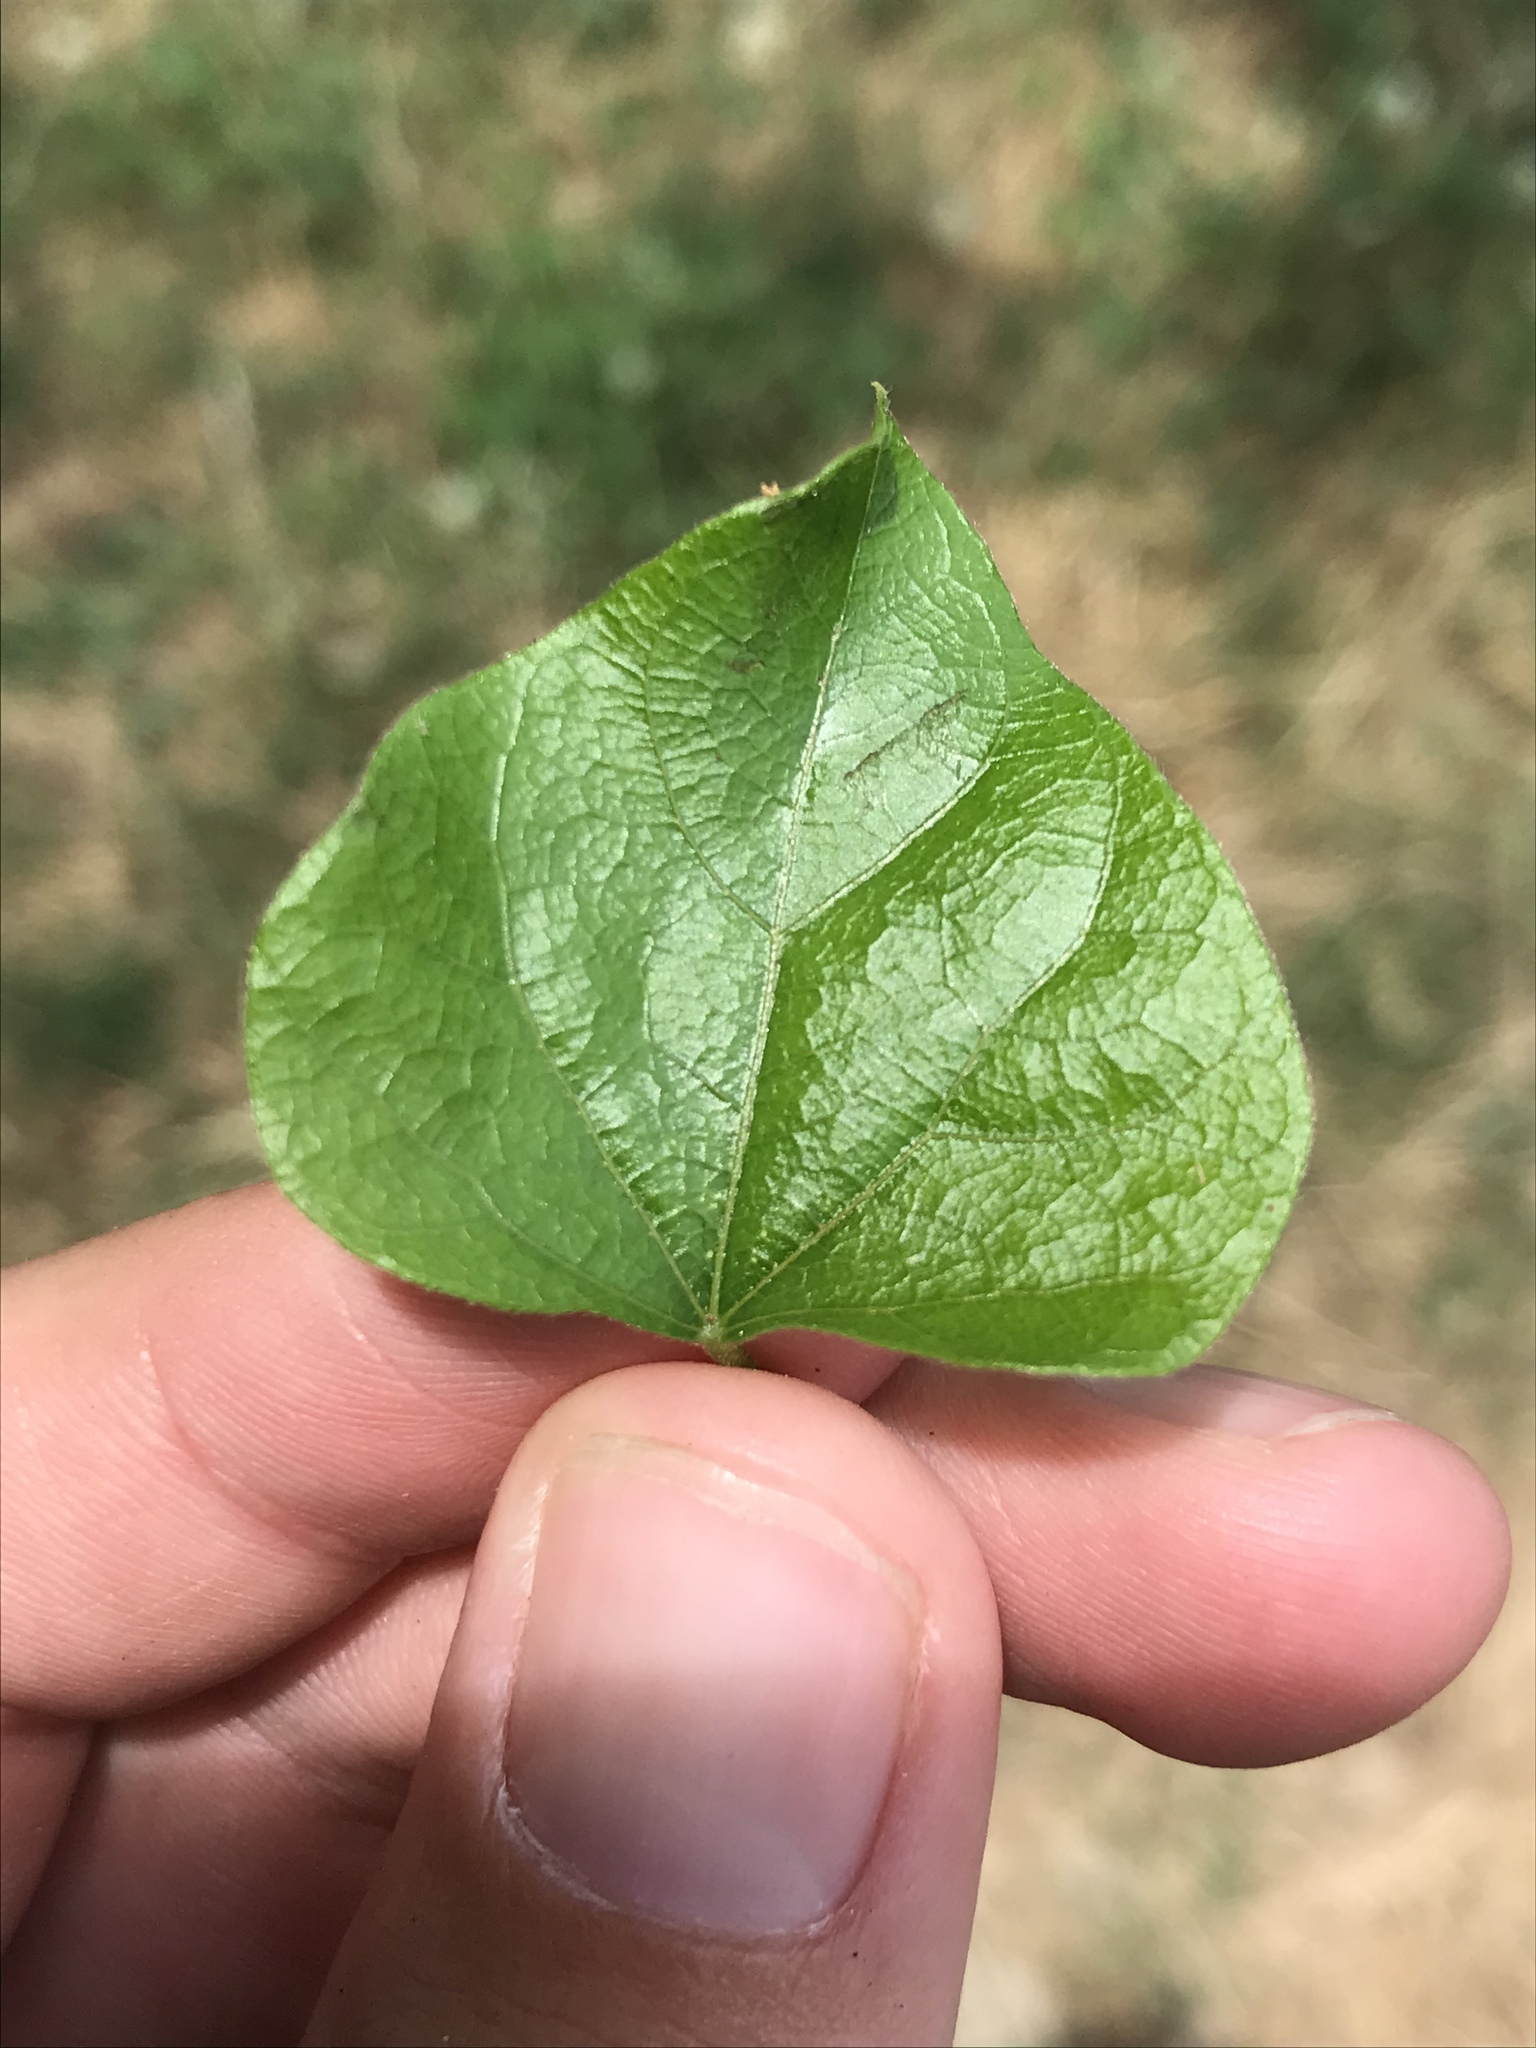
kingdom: Plantae
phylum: Tracheophyta
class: Magnoliopsida
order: Ranunculales
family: Menispermaceae
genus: Cocculus
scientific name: Cocculus carolinus
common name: Carolina moonseed
